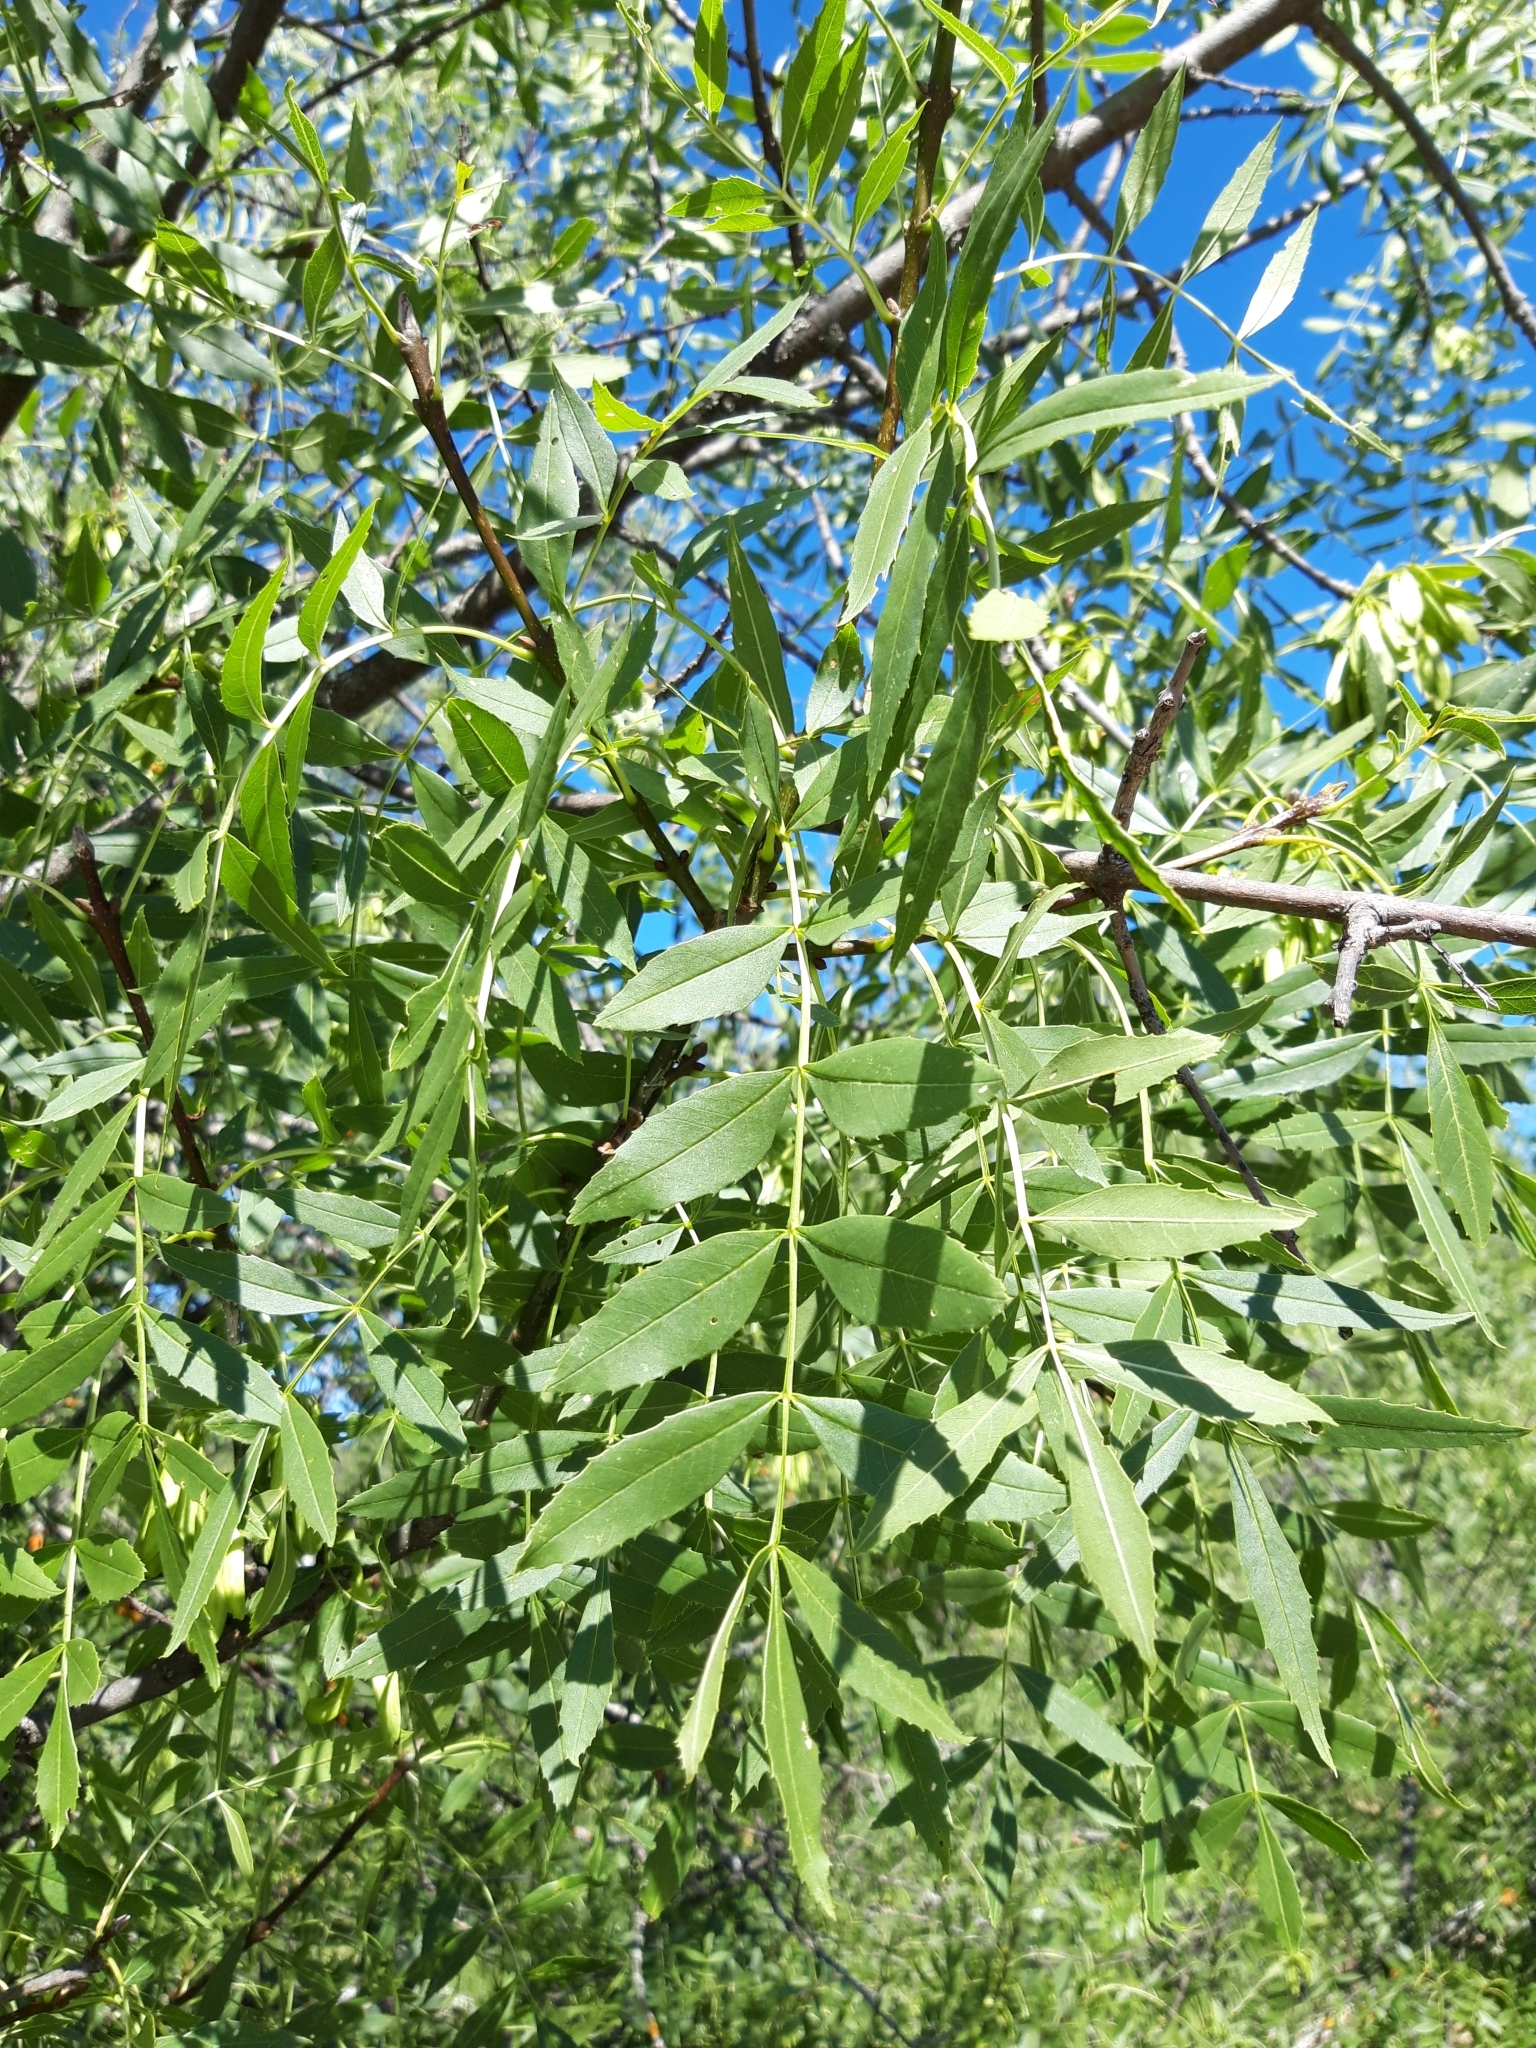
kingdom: Plantae
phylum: Tracheophyta
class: Magnoliopsida
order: Lamiales
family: Oleaceae
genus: Fraxinus
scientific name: Fraxinus angustifolia
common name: Narrow-leafed ash
